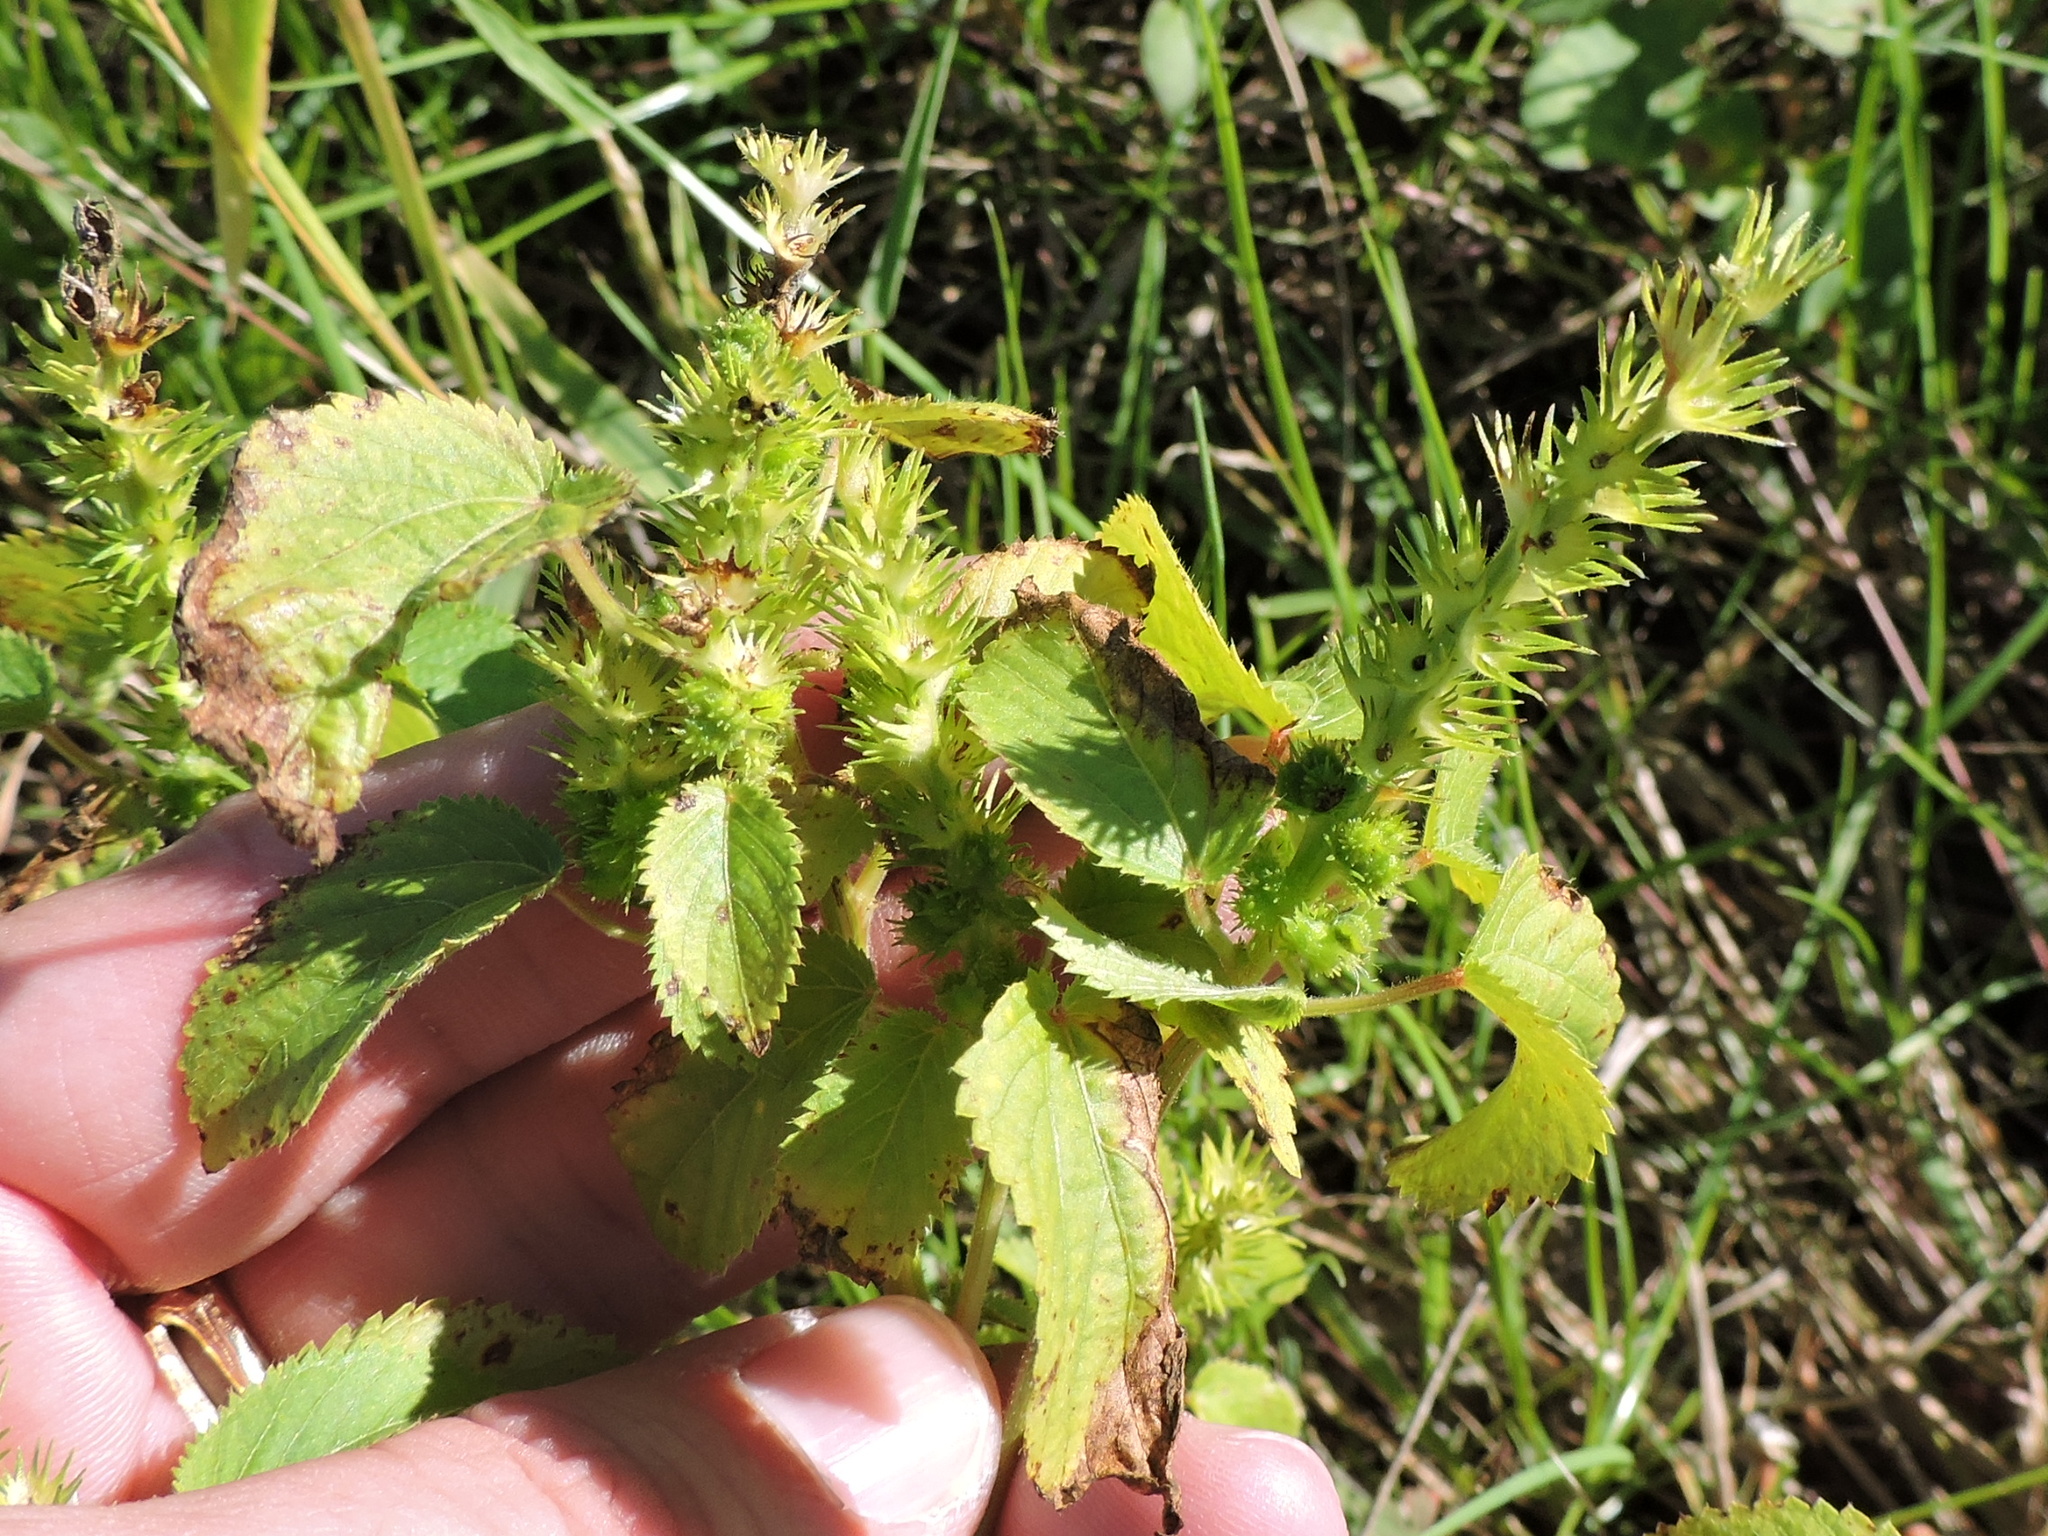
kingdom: Plantae
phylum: Tracheophyta
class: Magnoliopsida
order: Malpighiales
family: Euphorbiaceae
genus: Acalypha
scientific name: Acalypha ostryifolia
